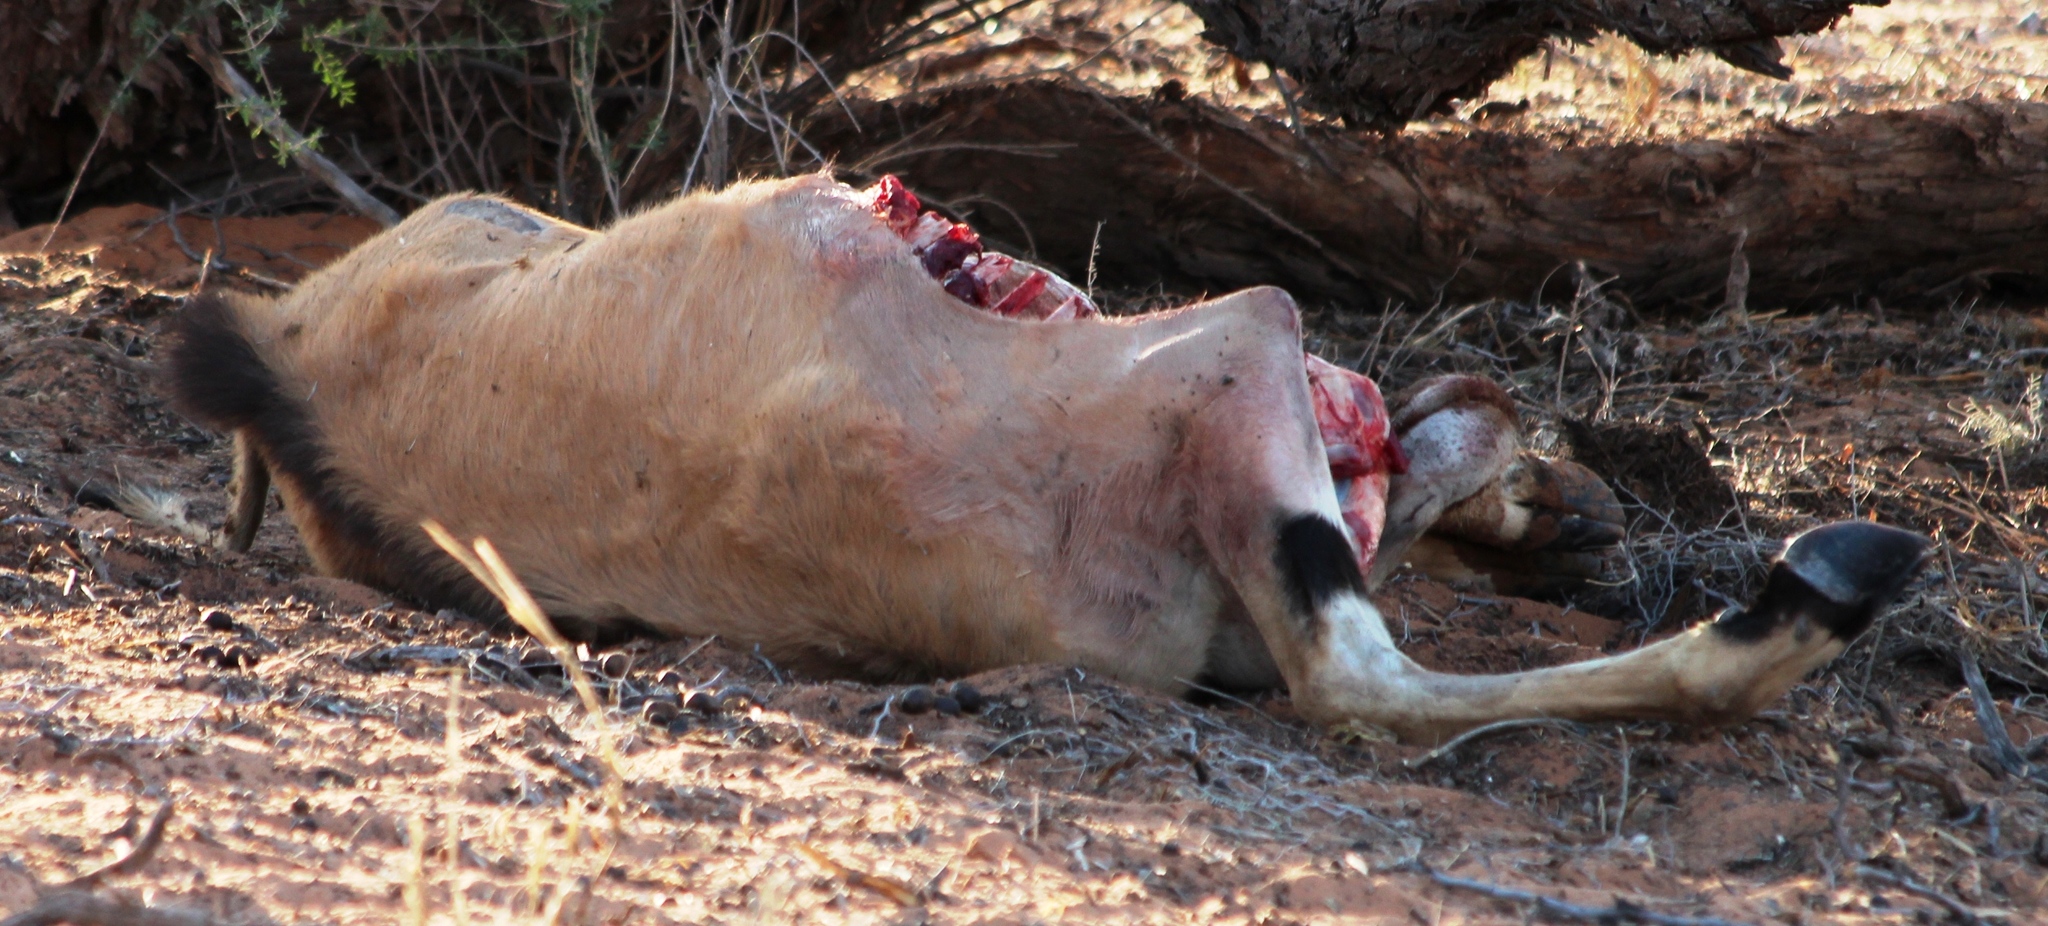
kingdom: Animalia
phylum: Chordata
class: Mammalia
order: Artiodactyla
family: Bovidae
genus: Oryx
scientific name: Oryx gazella
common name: Gemsbok
